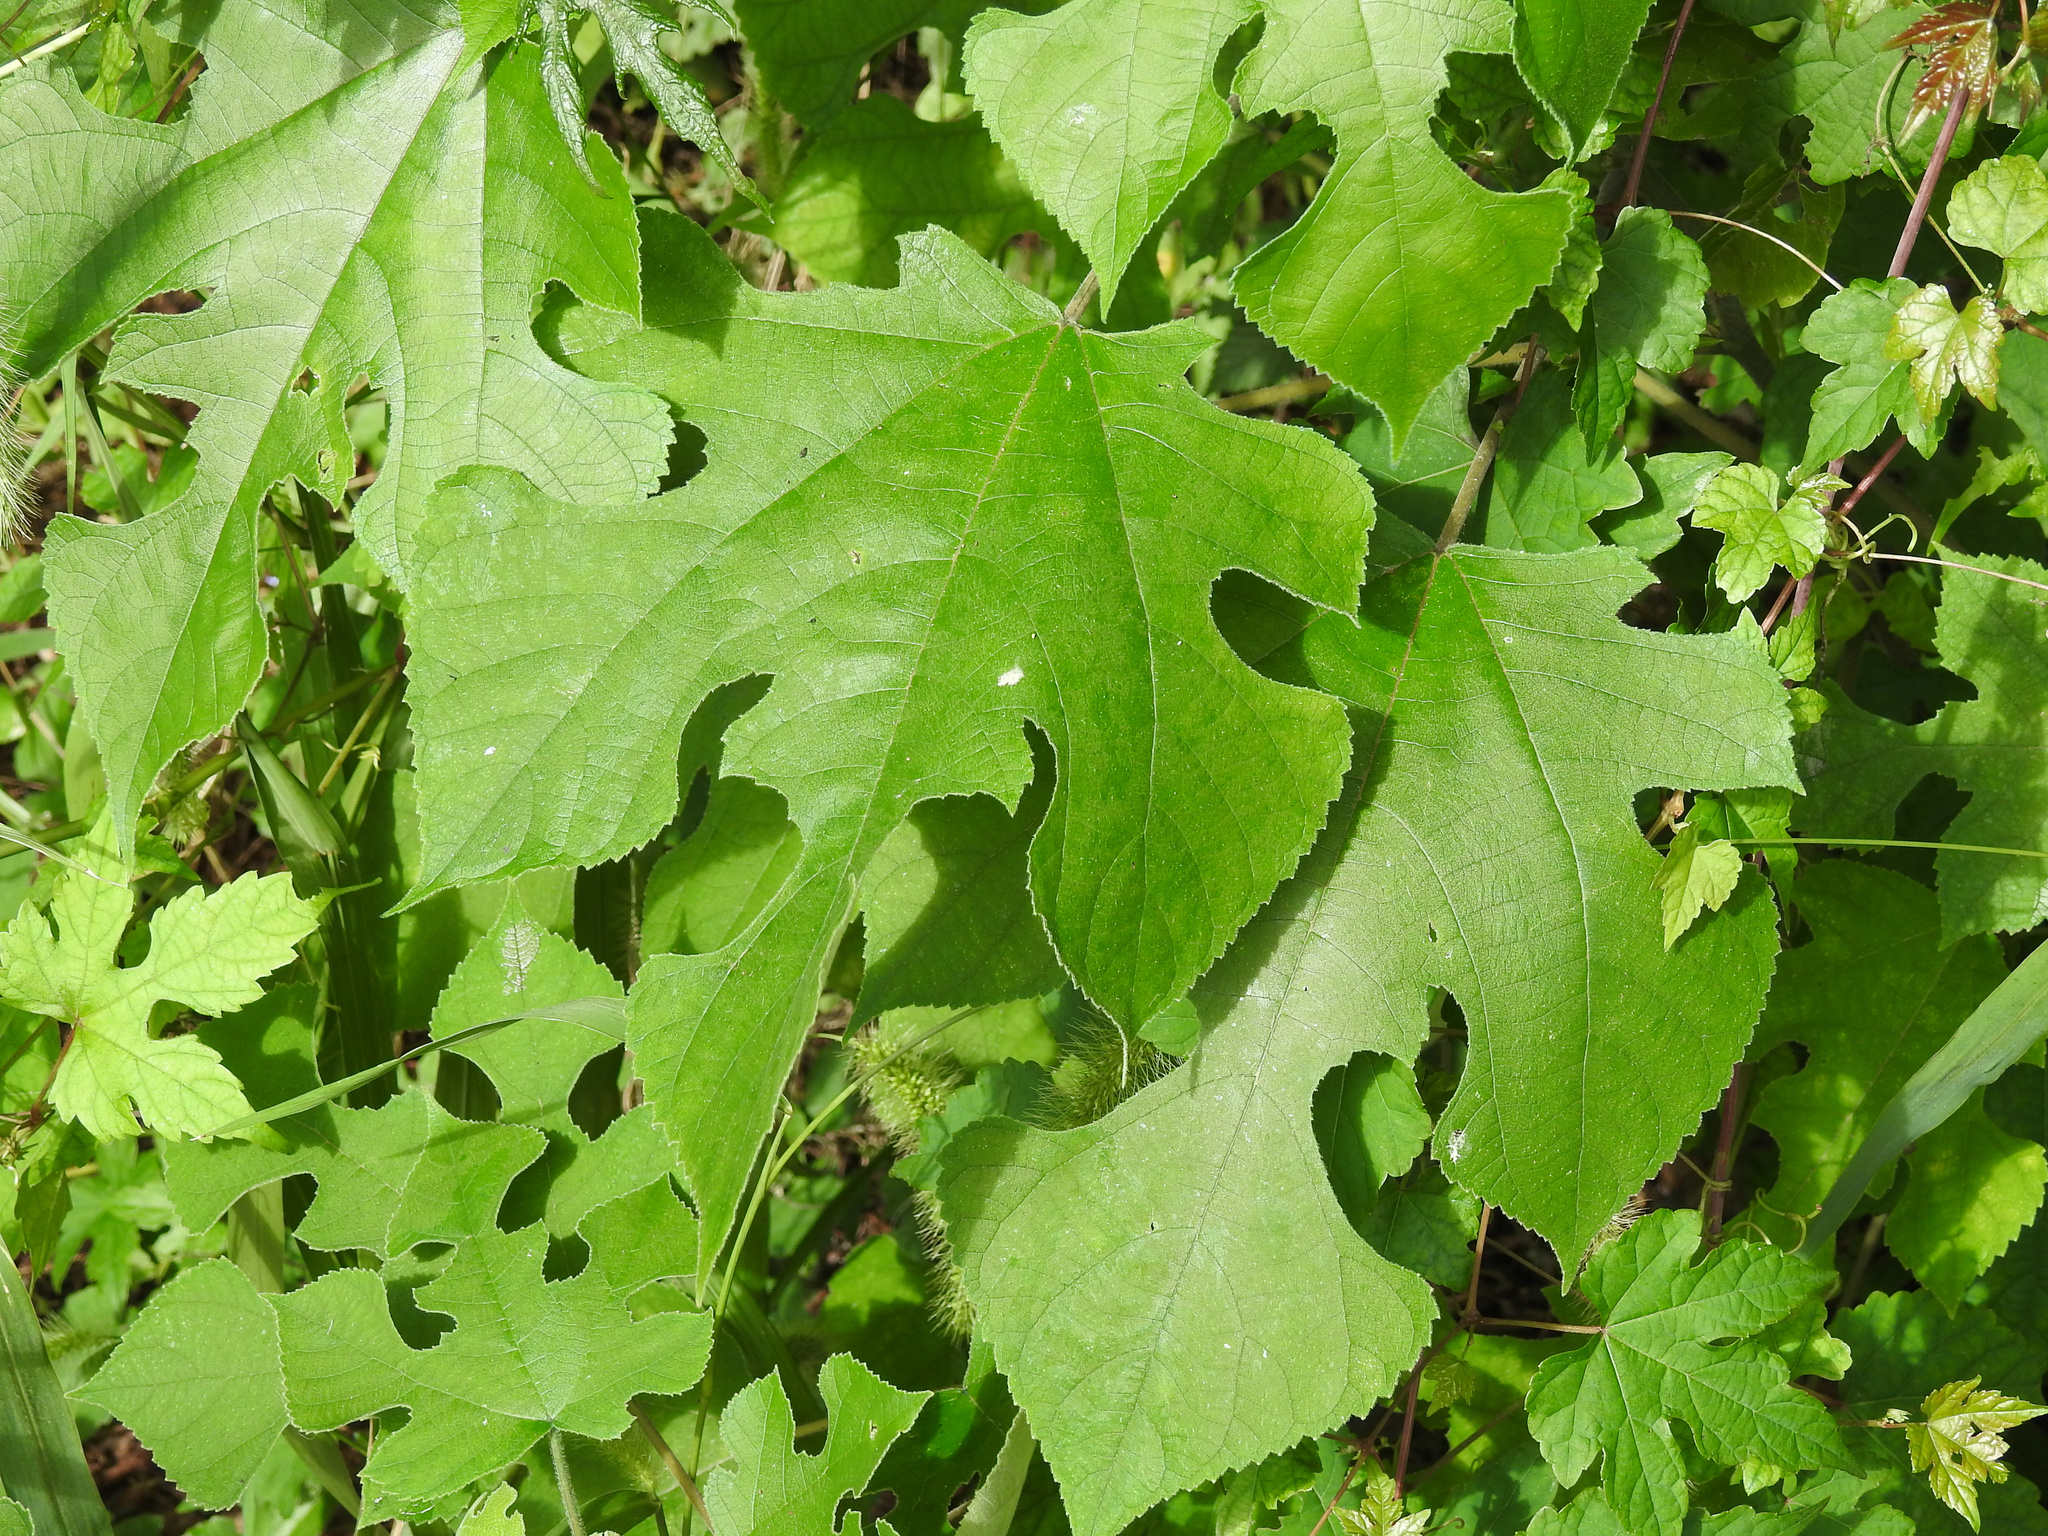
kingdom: Plantae
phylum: Tracheophyta
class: Magnoliopsida
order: Rosales
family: Moraceae
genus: Broussonetia
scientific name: Broussonetia papyrifera
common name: Paper mulberry
